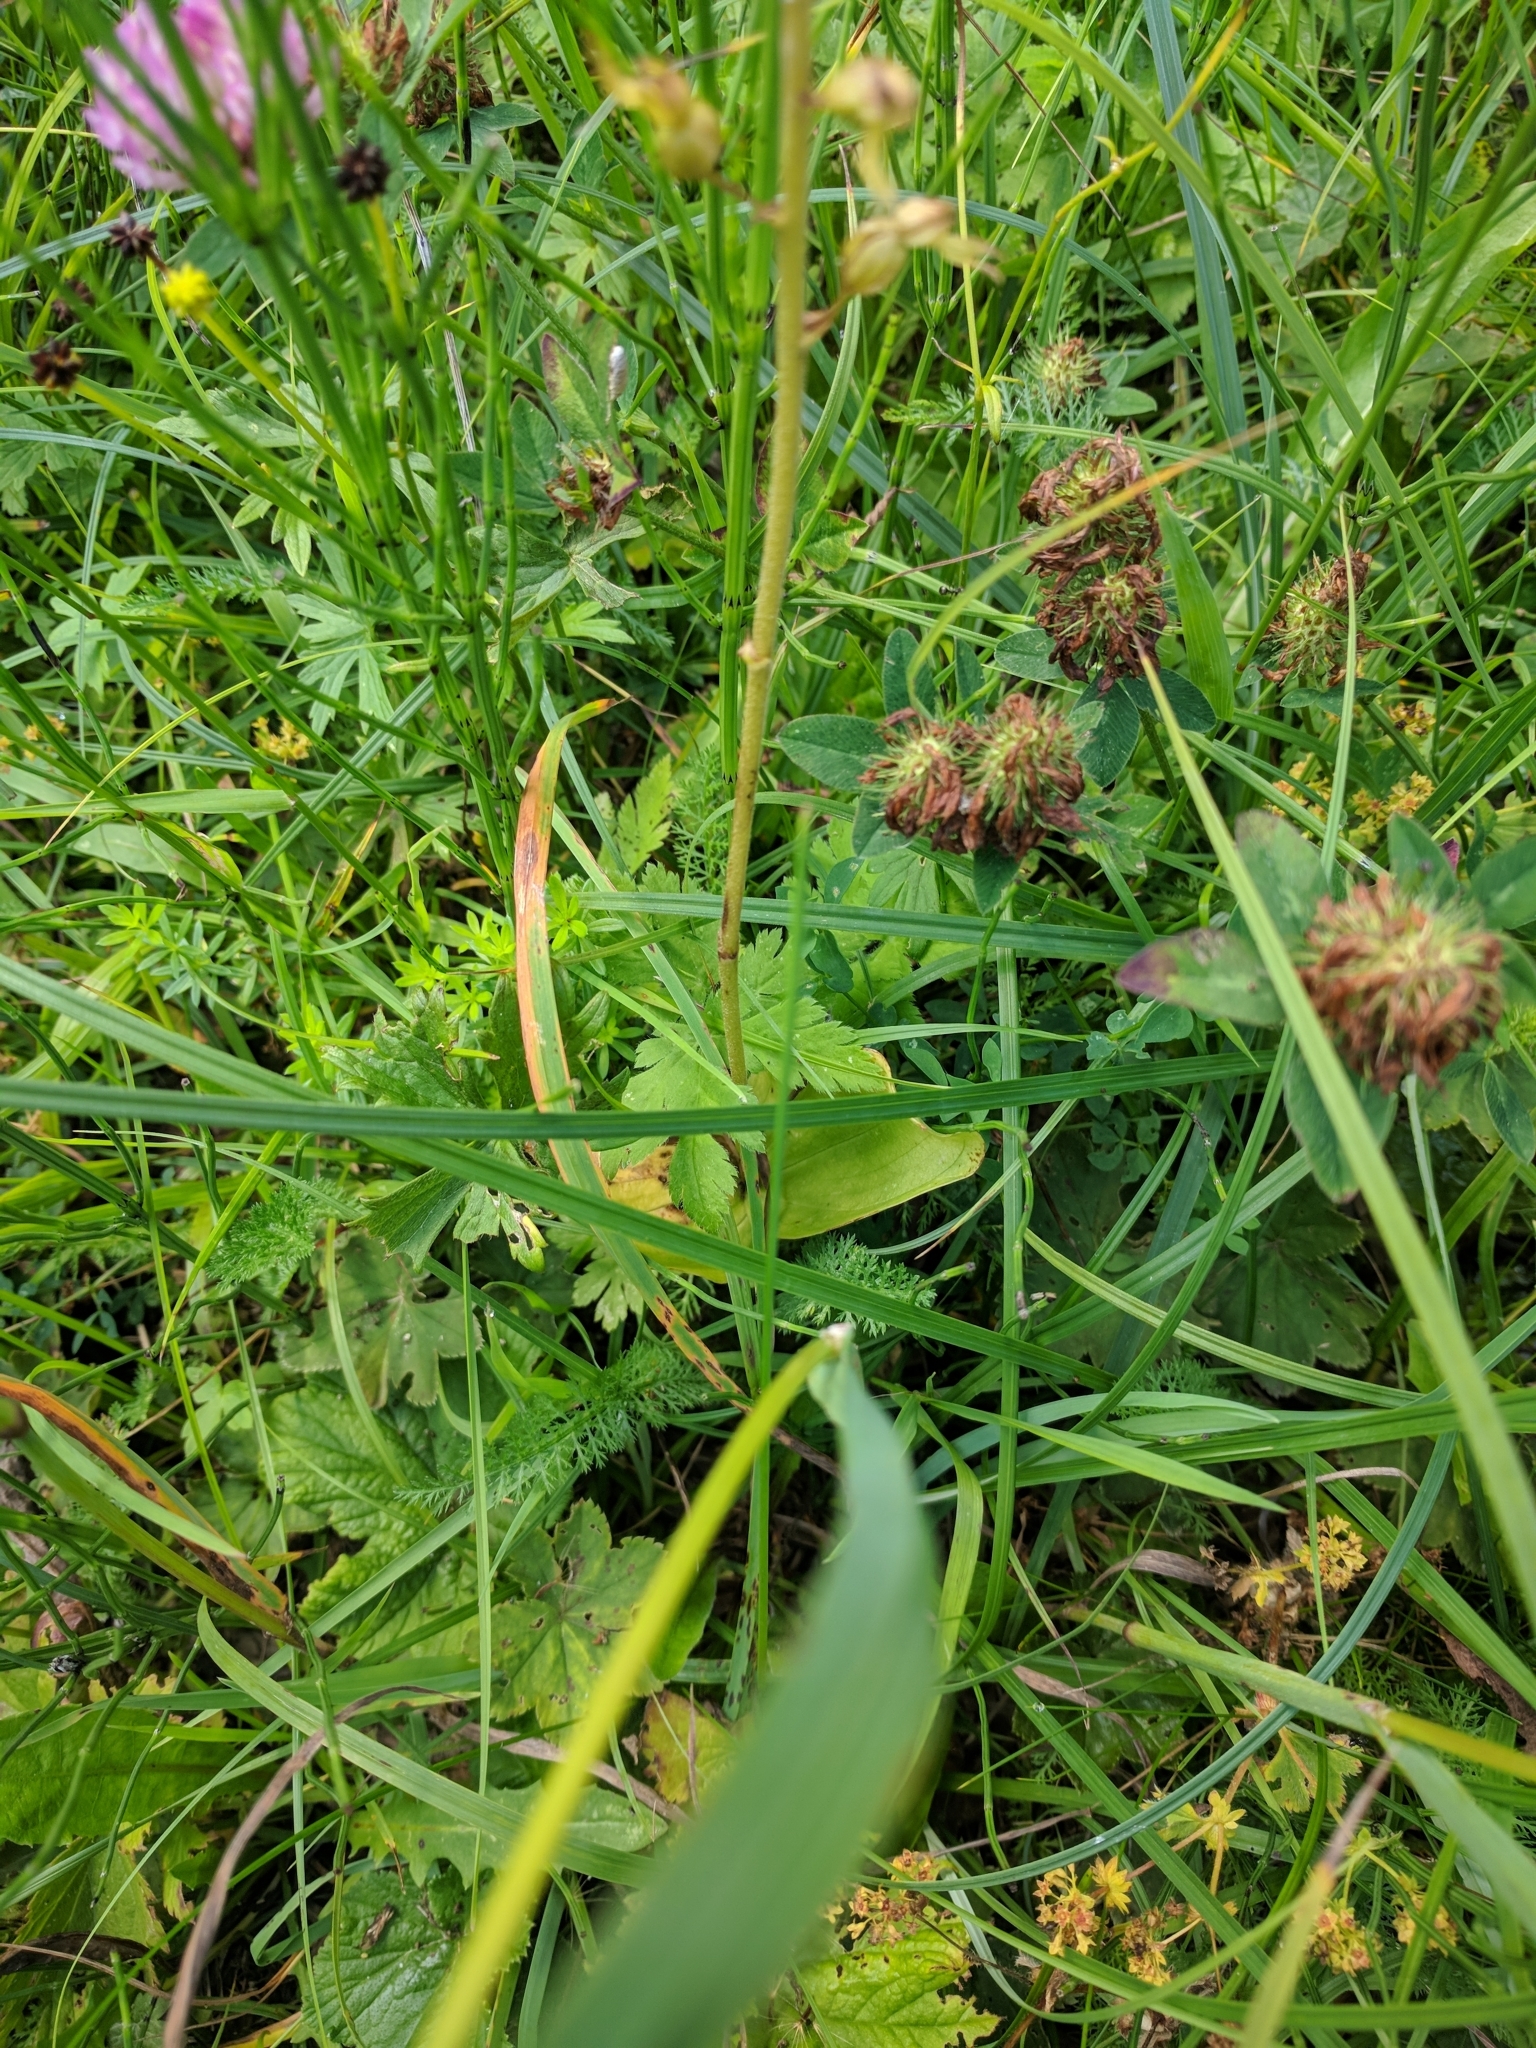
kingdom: Plantae
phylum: Tracheophyta
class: Liliopsida
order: Asparagales
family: Orchidaceae
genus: Neottia
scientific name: Neottia ovata
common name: Common twayblade
